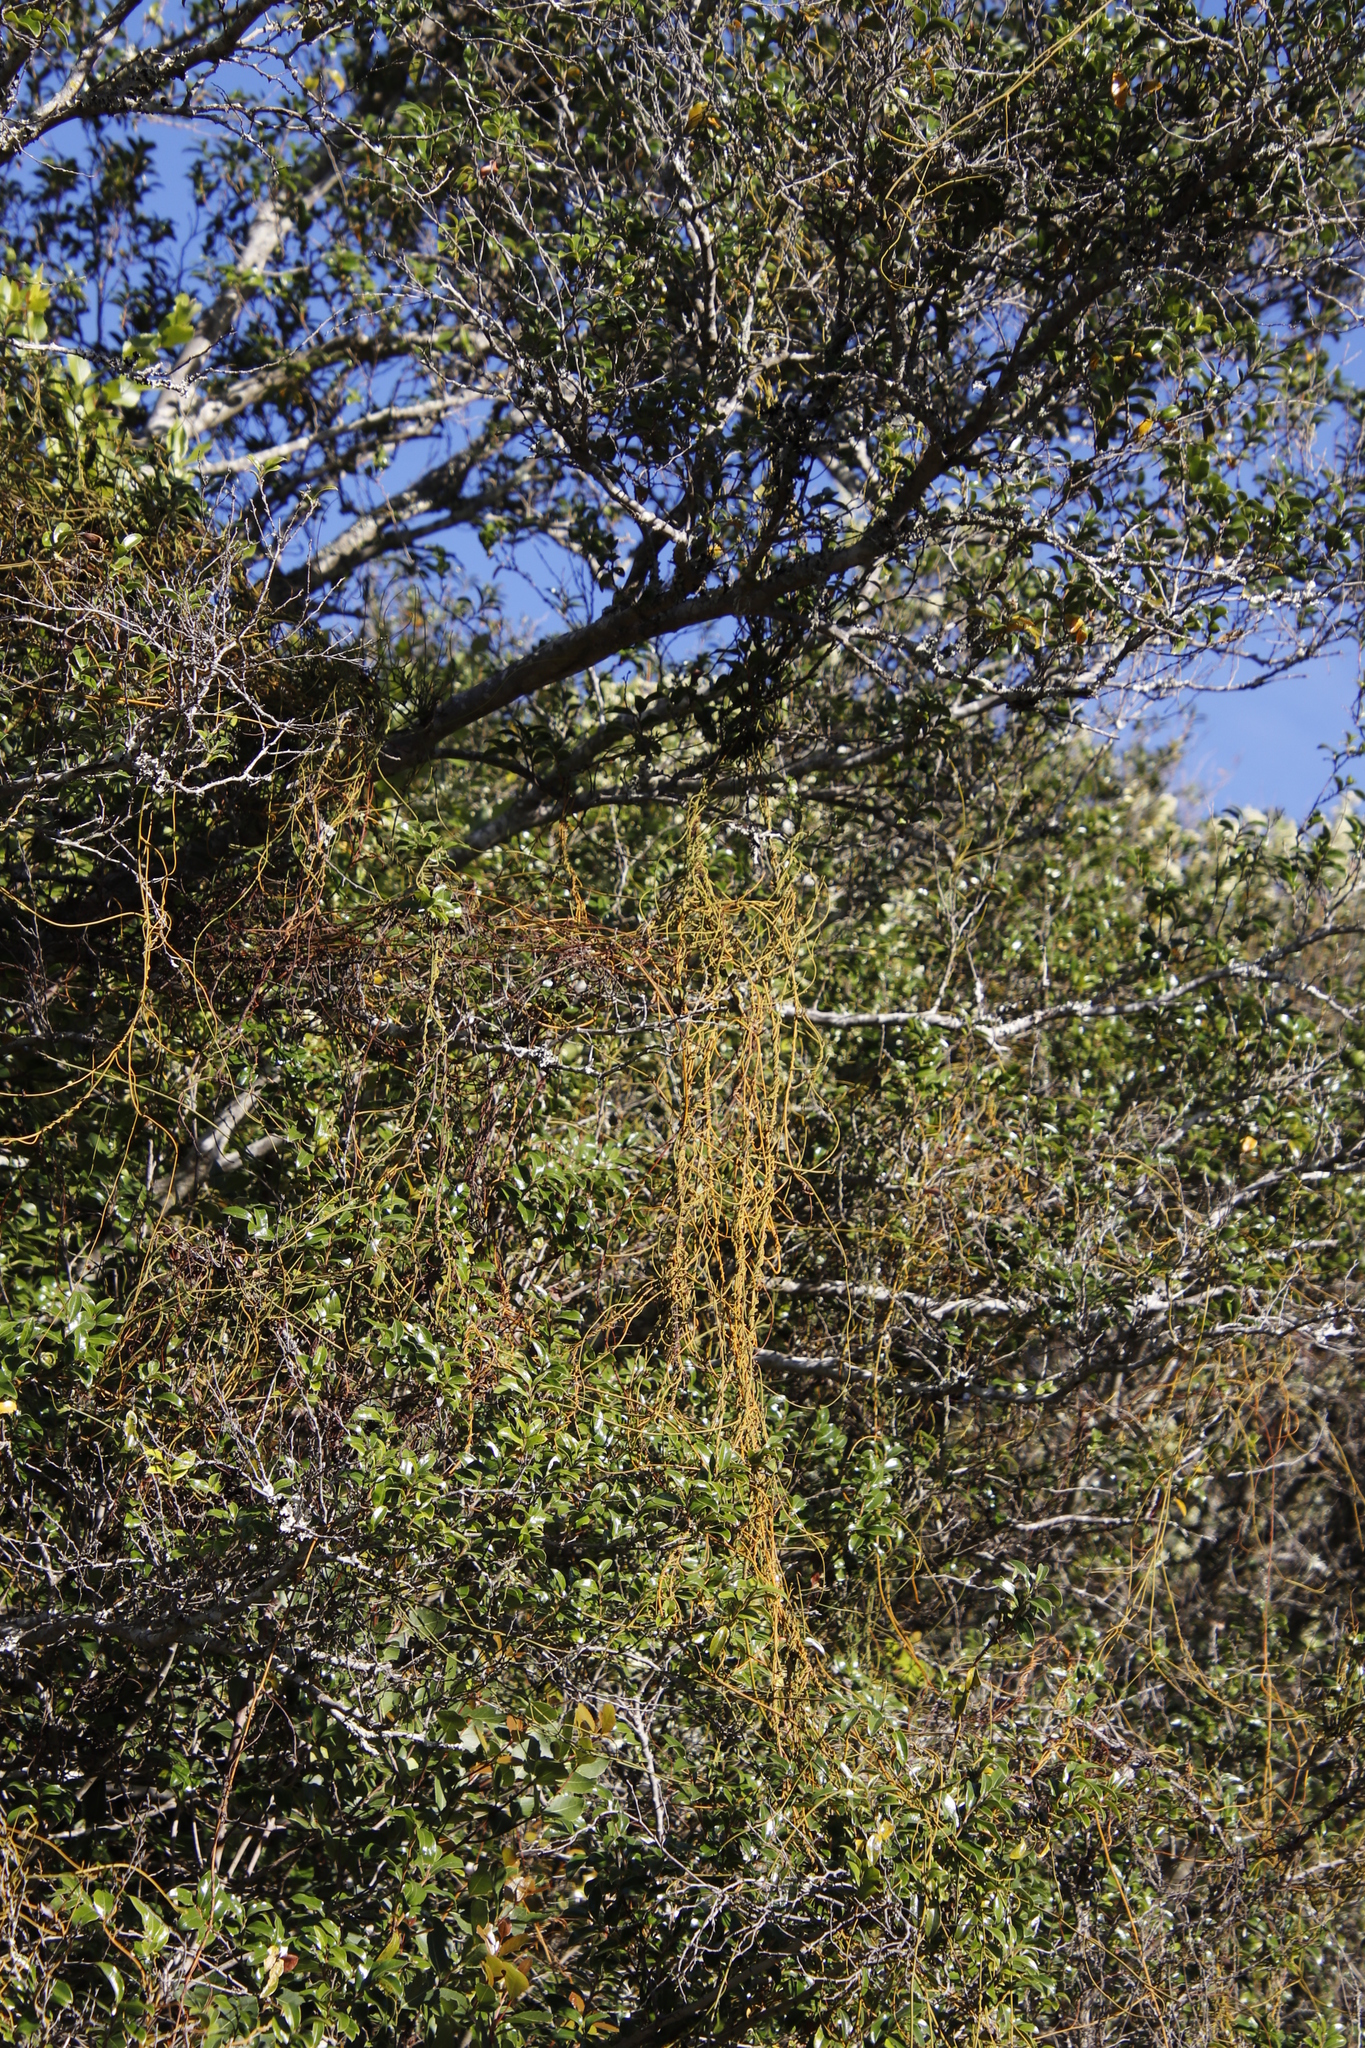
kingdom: Plantae
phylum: Tracheophyta
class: Magnoliopsida
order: Laurales
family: Lauraceae
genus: Cassytha
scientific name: Cassytha ciliolata
